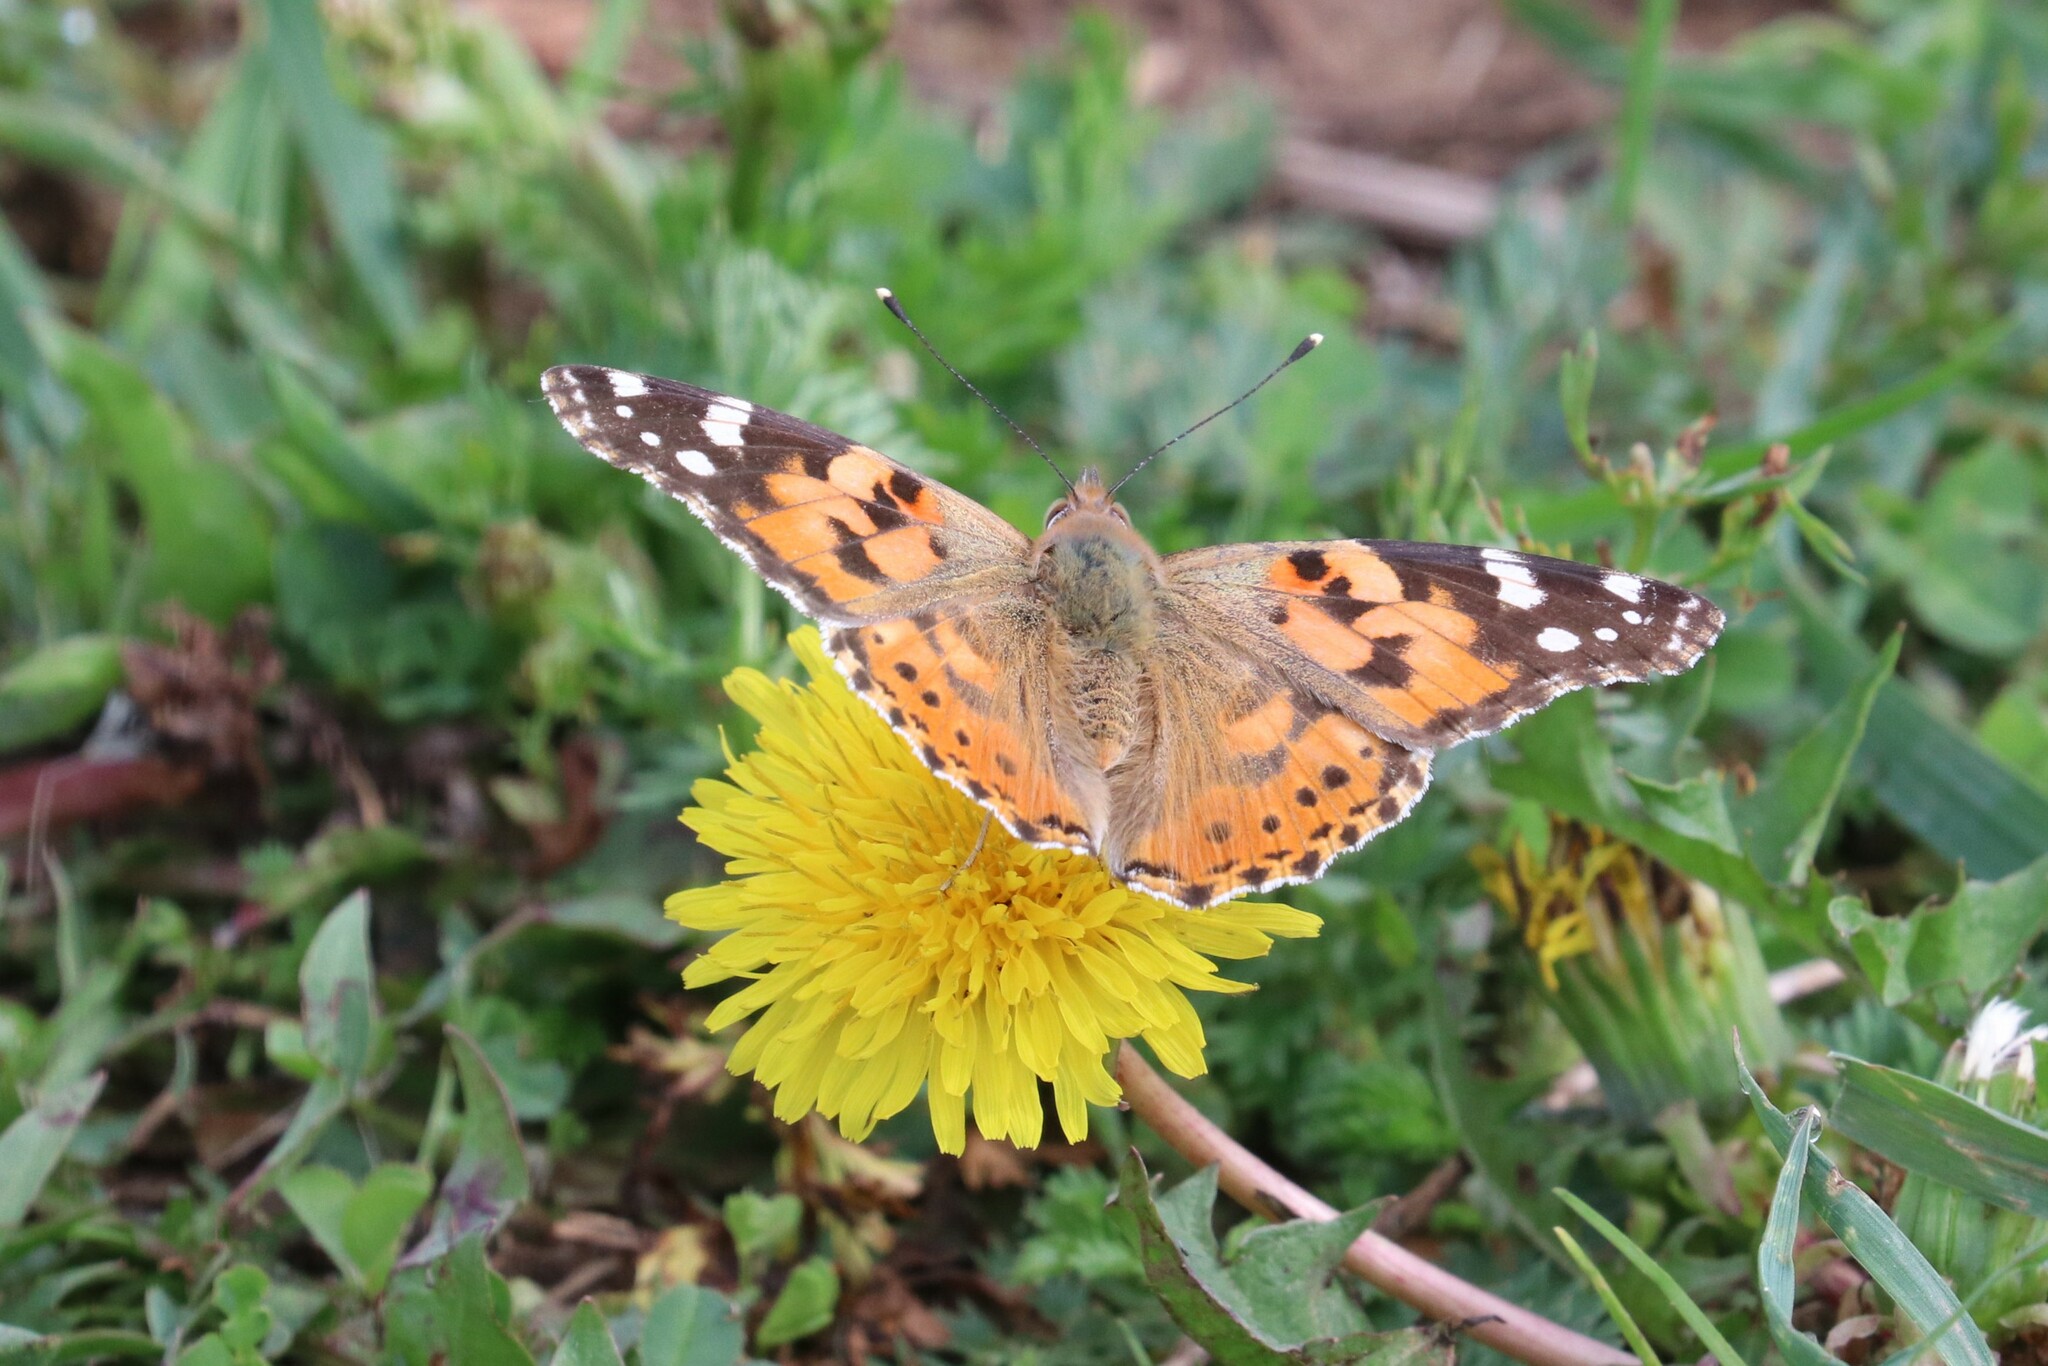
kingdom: Animalia
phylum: Arthropoda
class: Insecta
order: Lepidoptera
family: Nymphalidae
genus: Vanessa
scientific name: Vanessa cardui
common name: Painted lady
